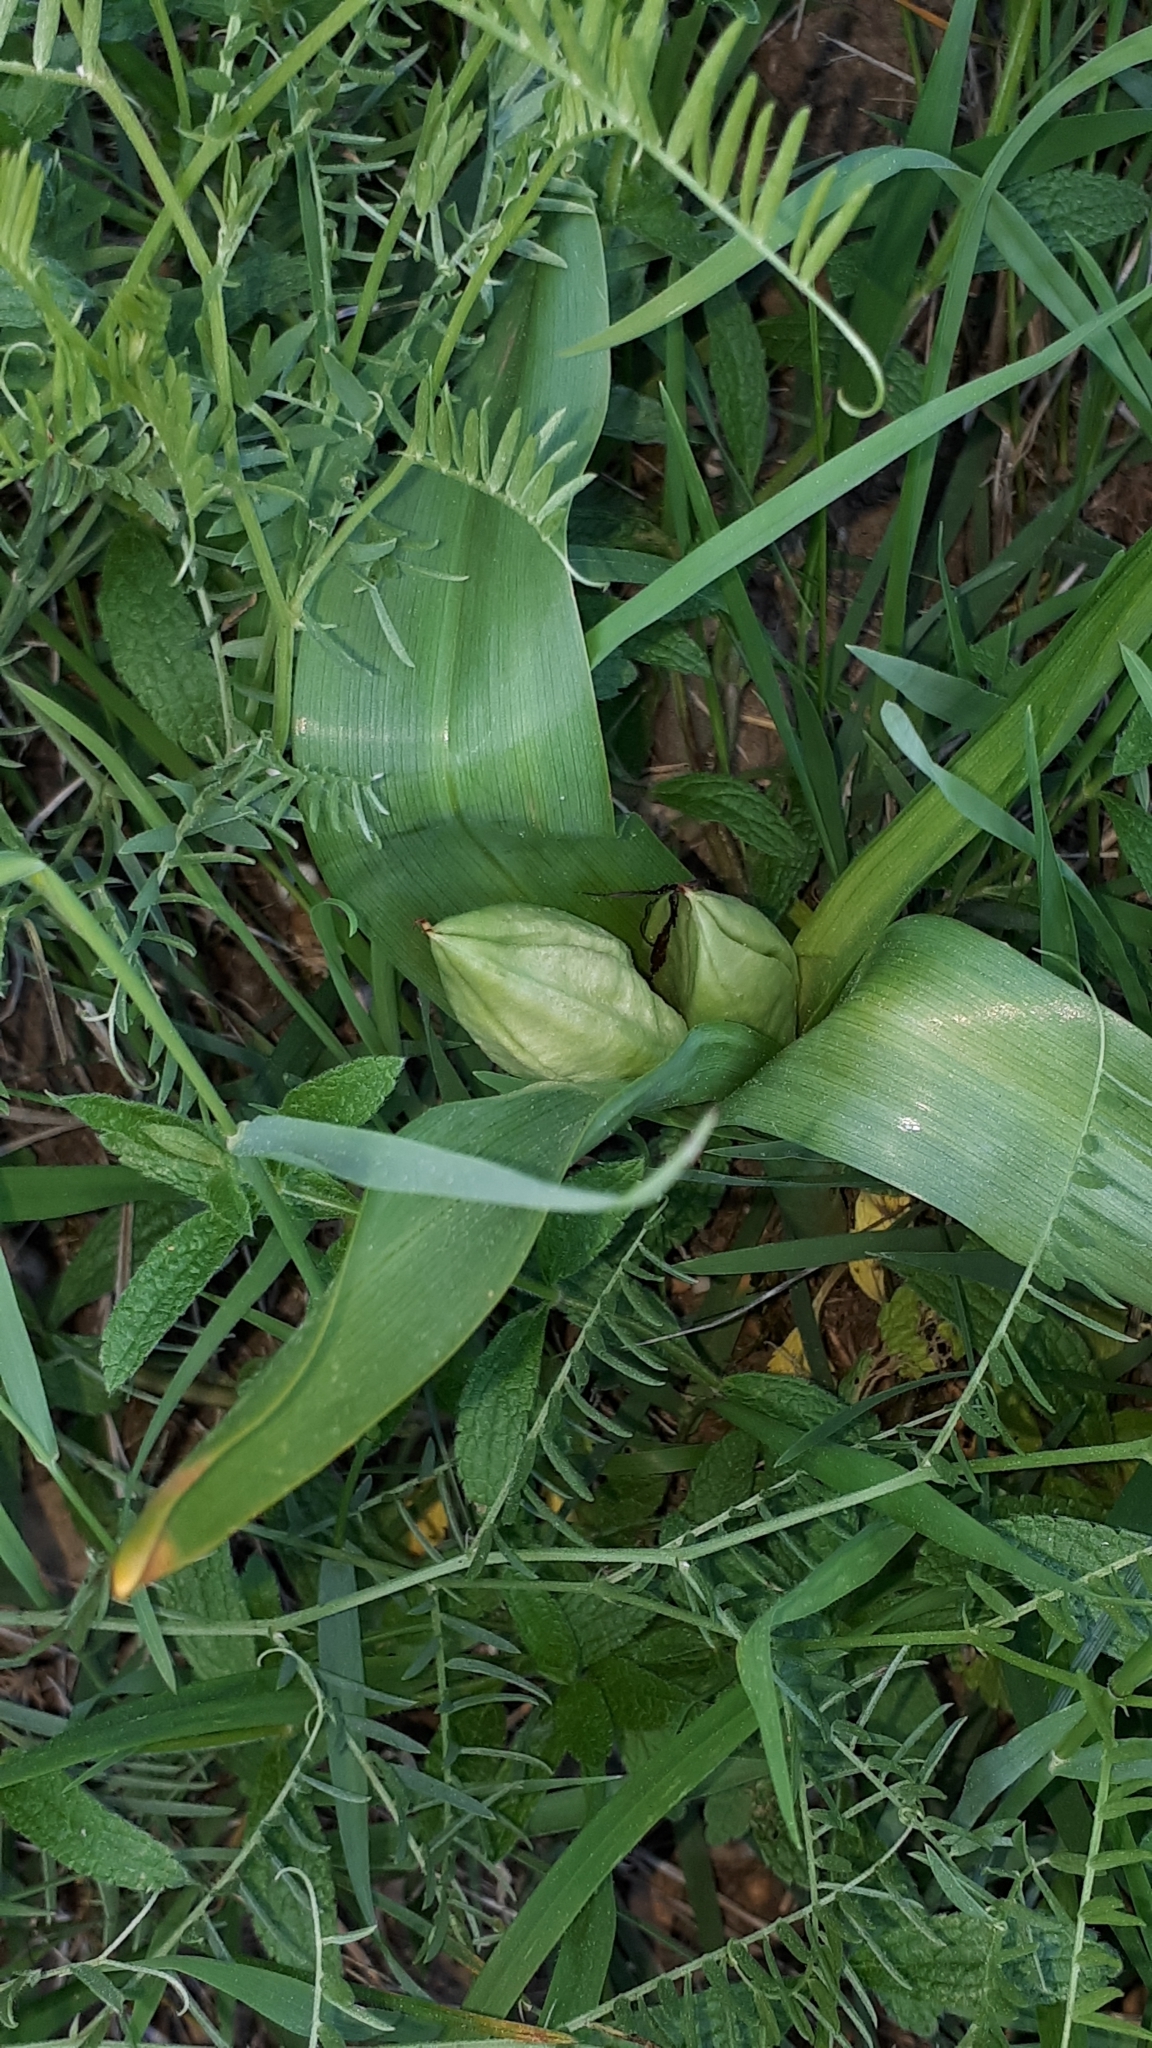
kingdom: Plantae
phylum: Tracheophyta
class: Liliopsida
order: Liliales
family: Colchicaceae
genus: Colchicum
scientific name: Colchicum autumnale
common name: Autumn crocus
